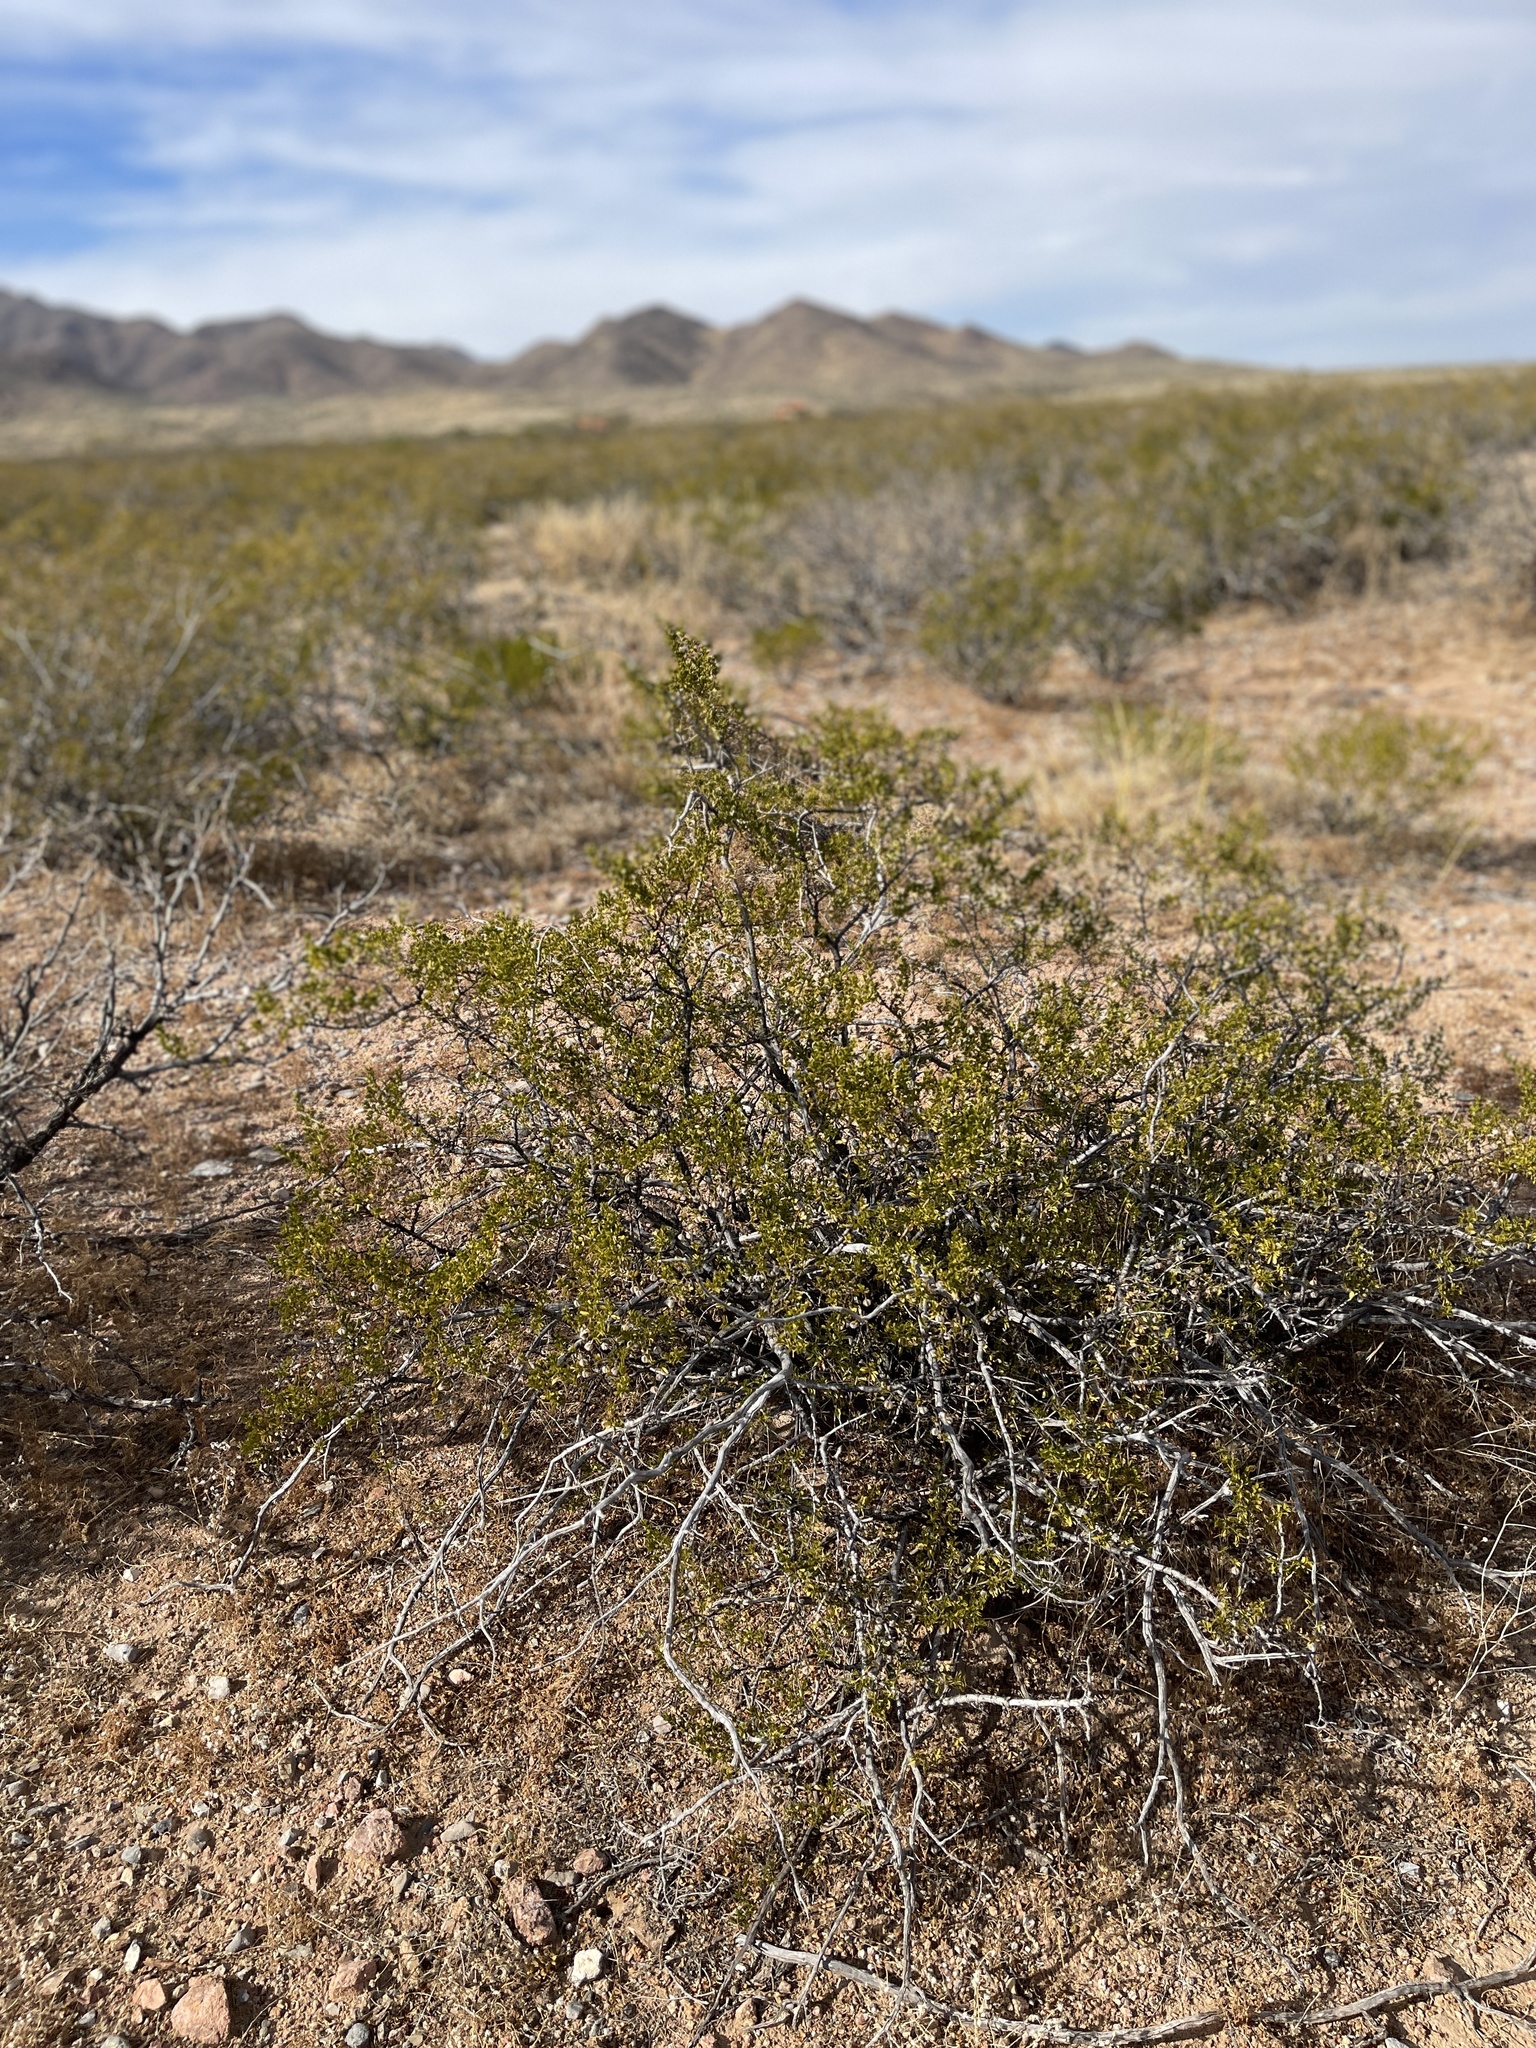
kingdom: Plantae
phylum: Tracheophyta
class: Magnoliopsida
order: Zygophyllales
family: Zygophyllaceae
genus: Larrea
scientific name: Larrea tridentata
